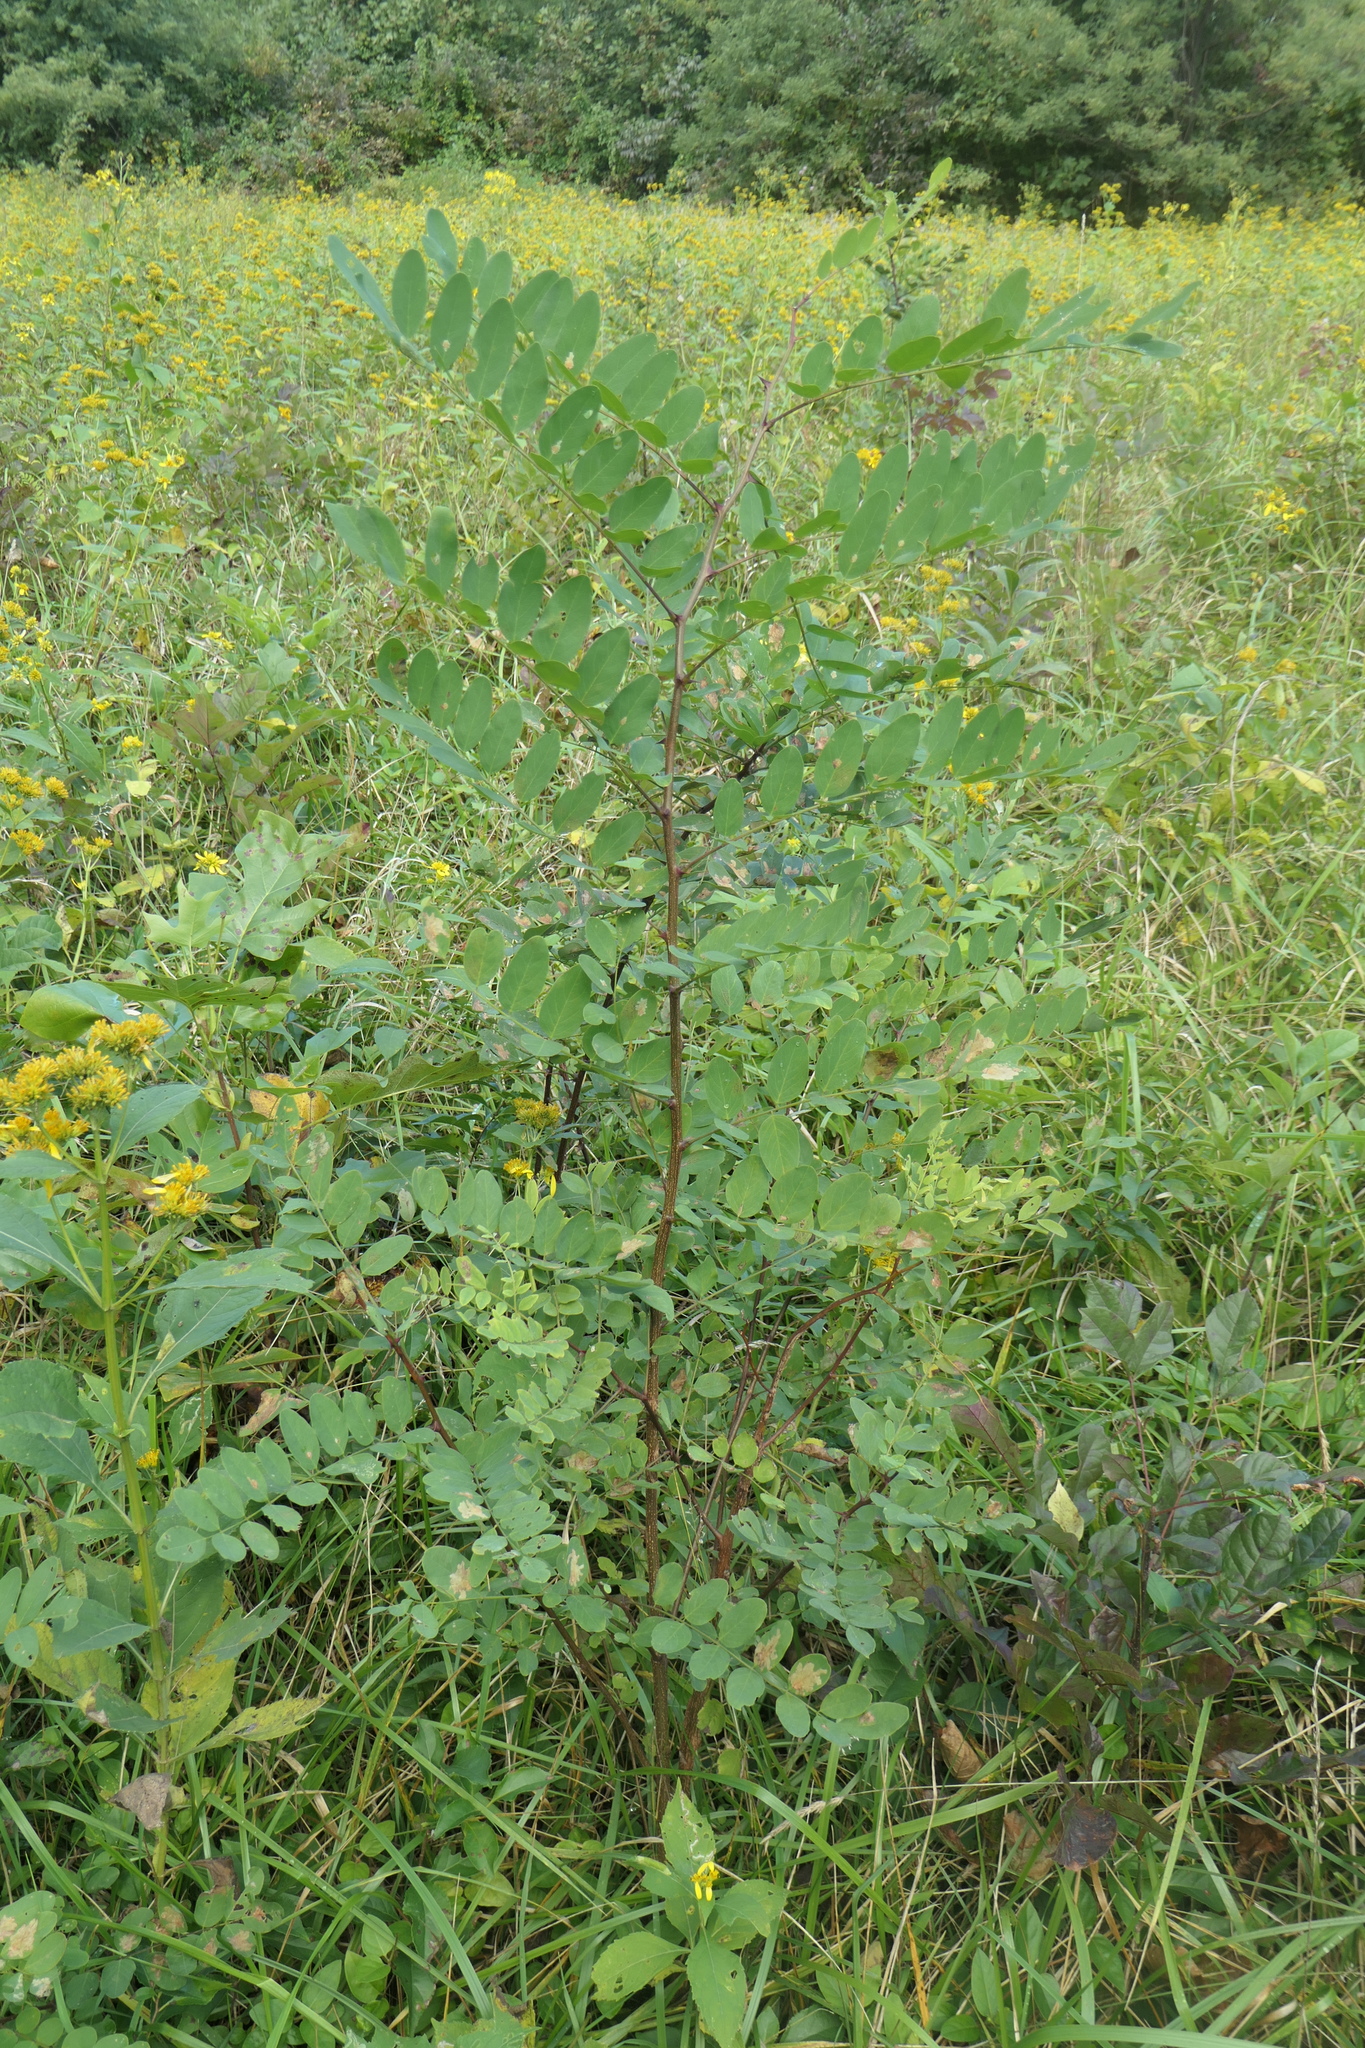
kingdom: Plantae
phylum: Tracheophyta
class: Magnoliopsida
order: Fabales
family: Fabaceae
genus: Robinia
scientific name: Robinia pseudoacacia
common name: Black locust
